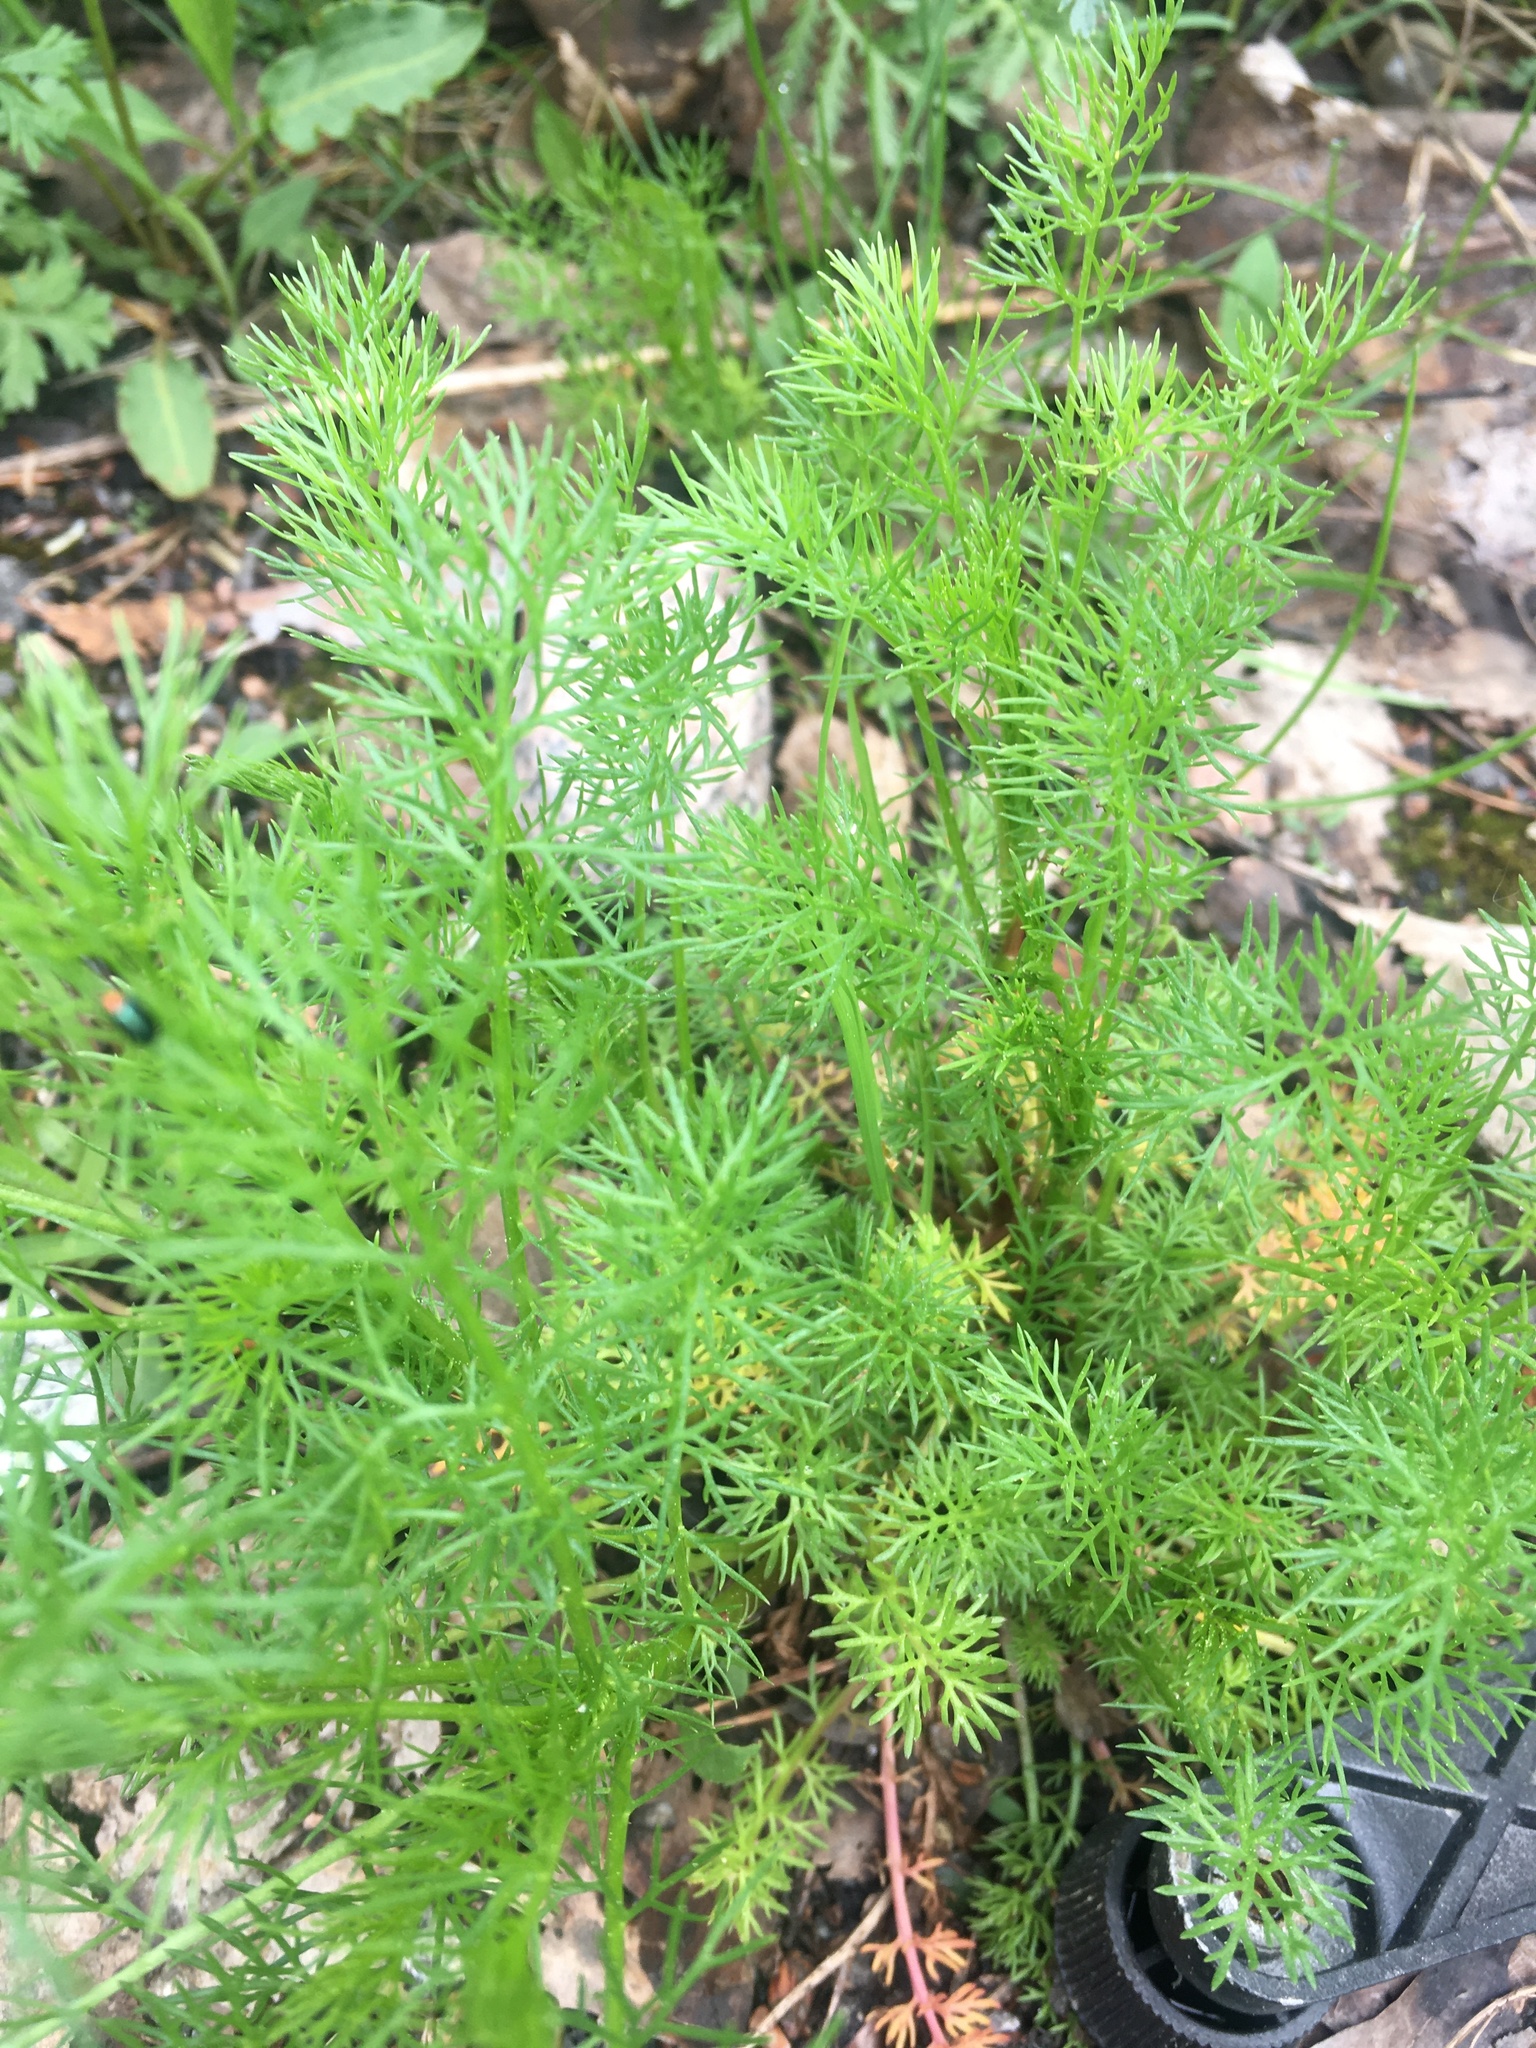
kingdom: Plantae
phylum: Tracheophyta
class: Magnoliopsida
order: Asterales
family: Asteraceae
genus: Tripleurospermum
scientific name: Tripleurospermum inodorum
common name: Scentless mayweed
